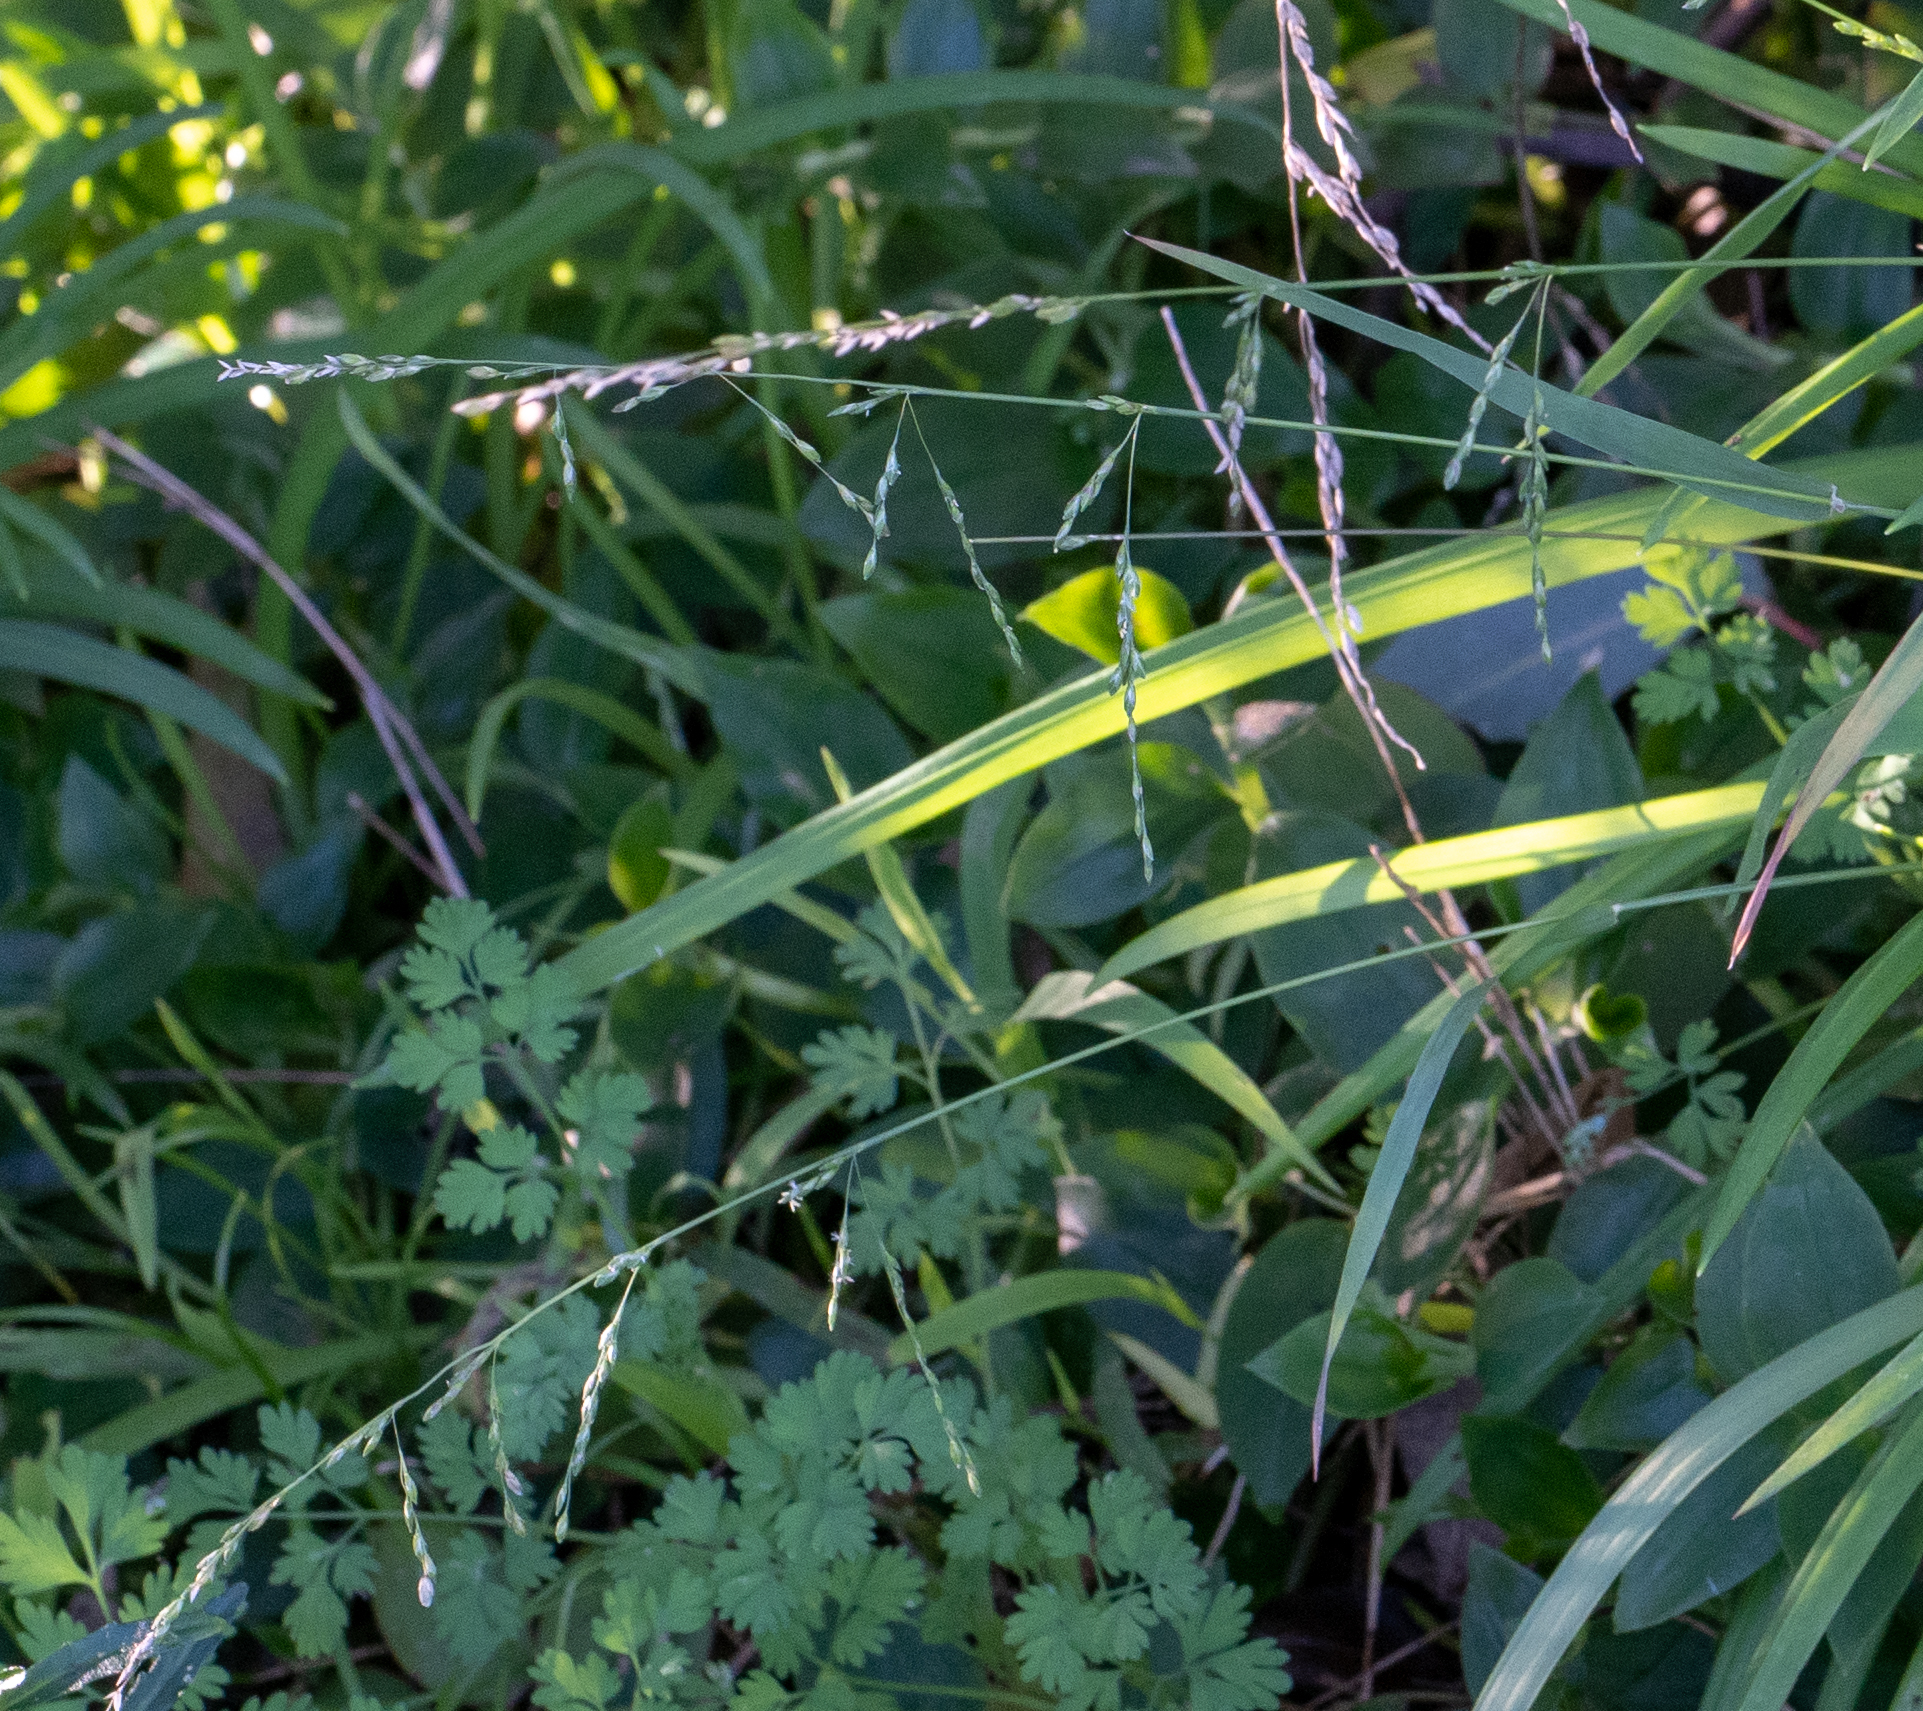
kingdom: Plantae
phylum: Tracheophyta
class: Liliopsida
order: Poales
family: Poaceae
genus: Ehrharta
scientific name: Ehrharta erecta
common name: Panic veldtgrass
